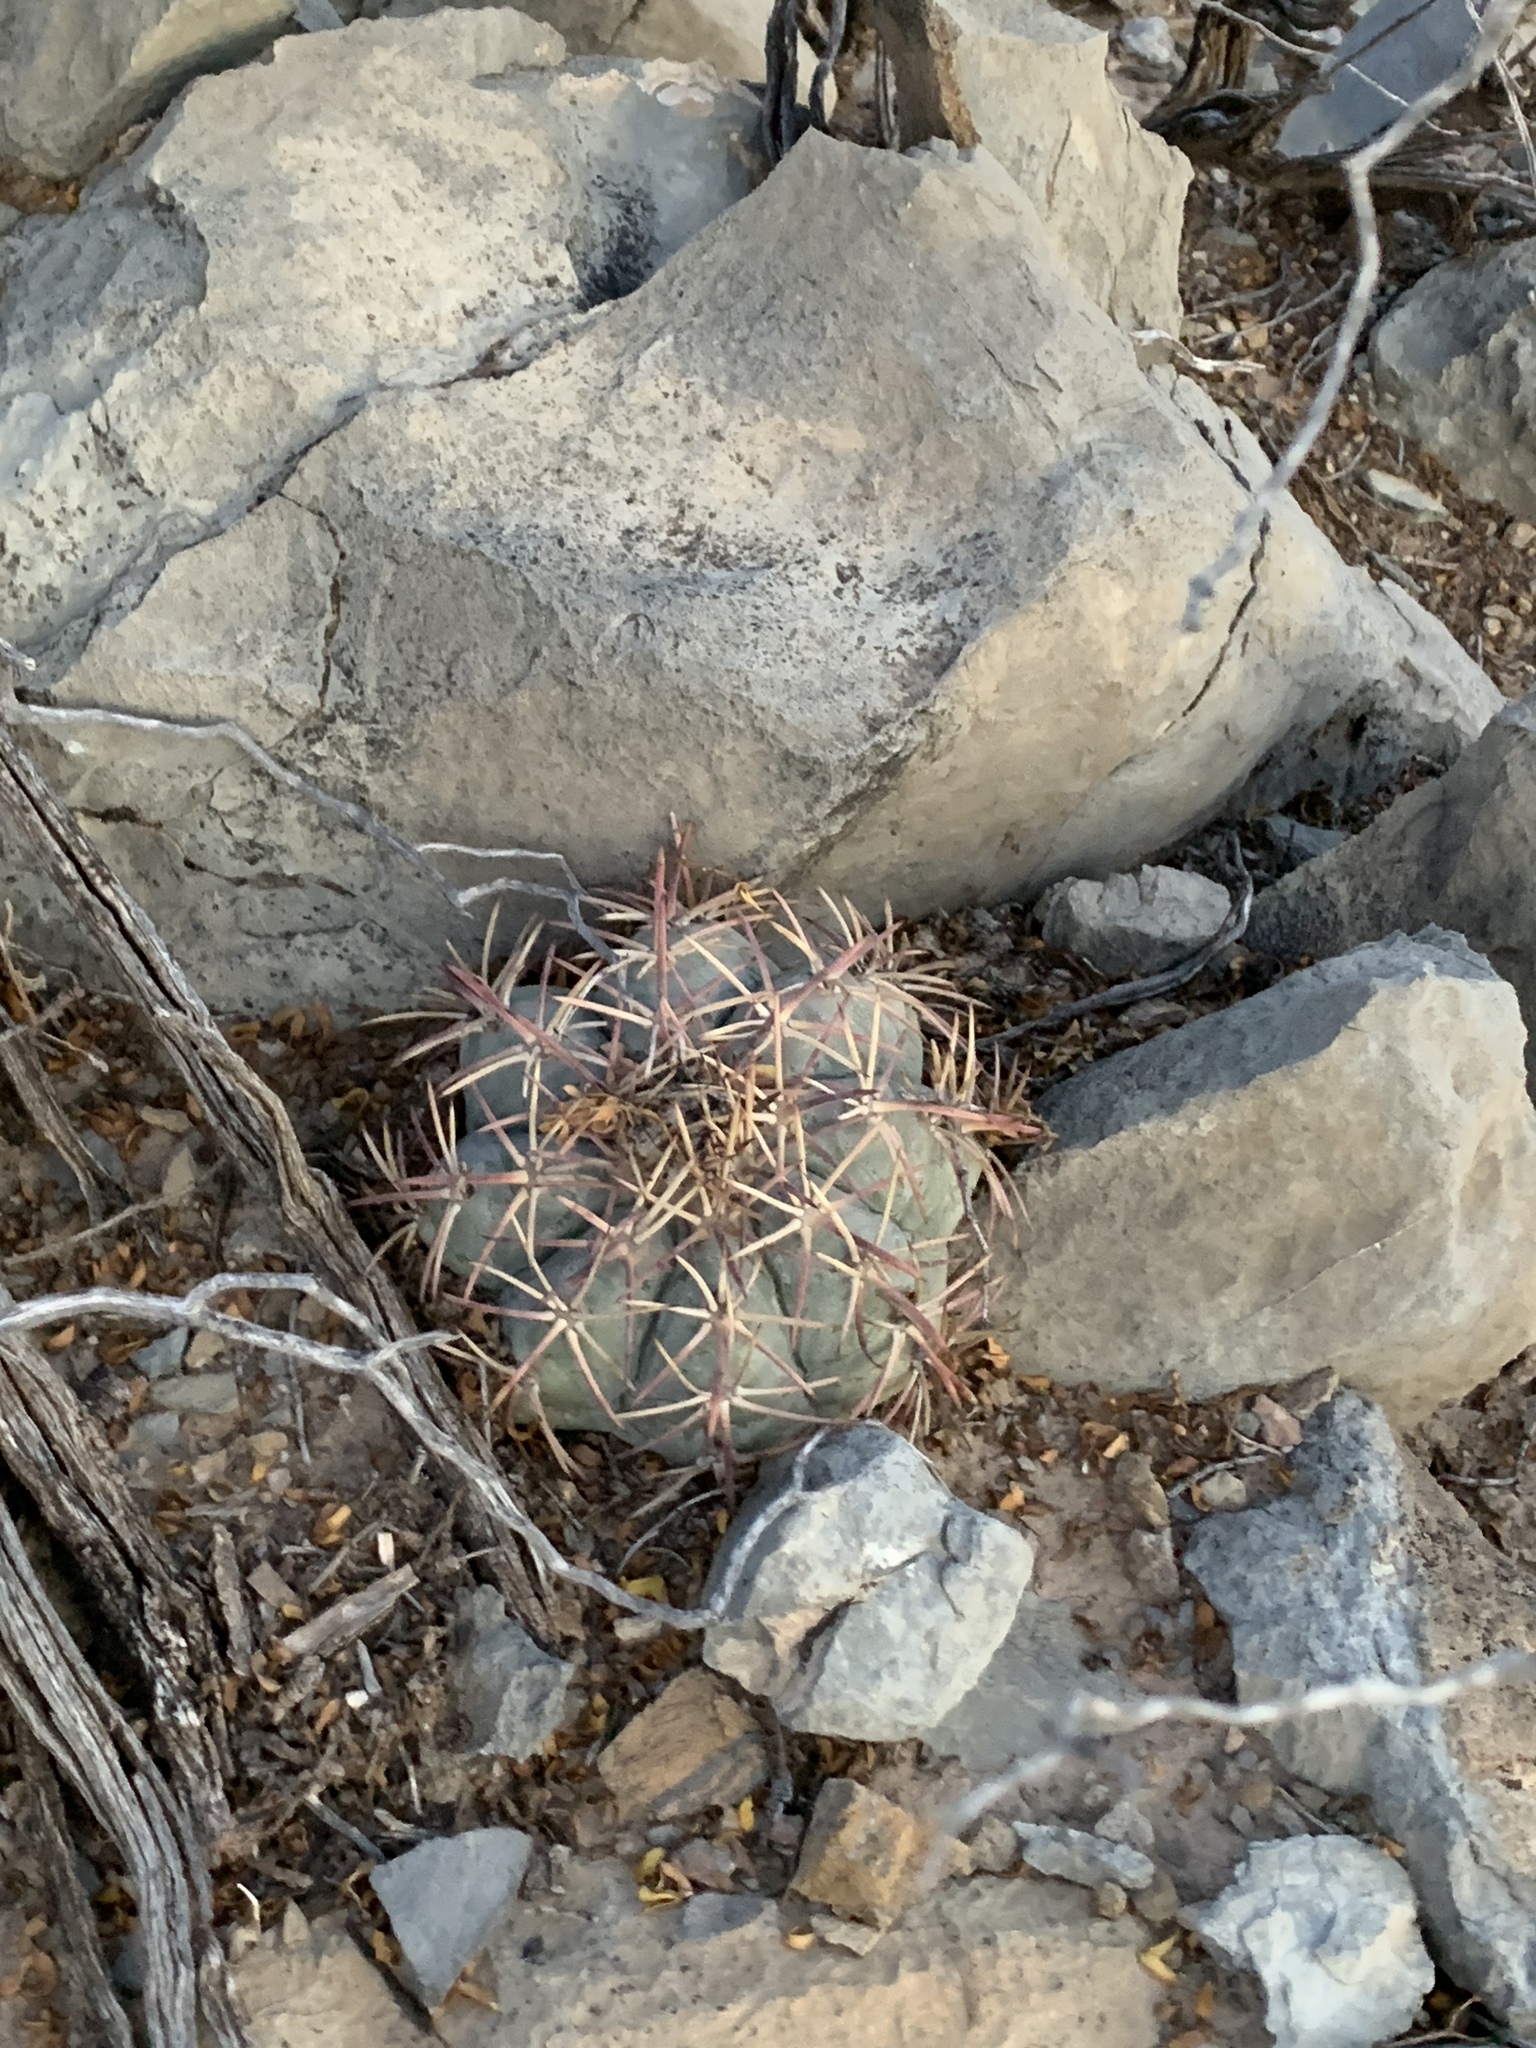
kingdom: Plantae
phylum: Tracheophyta
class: Magnoliopsida
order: Caryophyllales
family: Cactaceae
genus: Echinocactus
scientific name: Echinocactus horizonthalonius
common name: Devilshead
